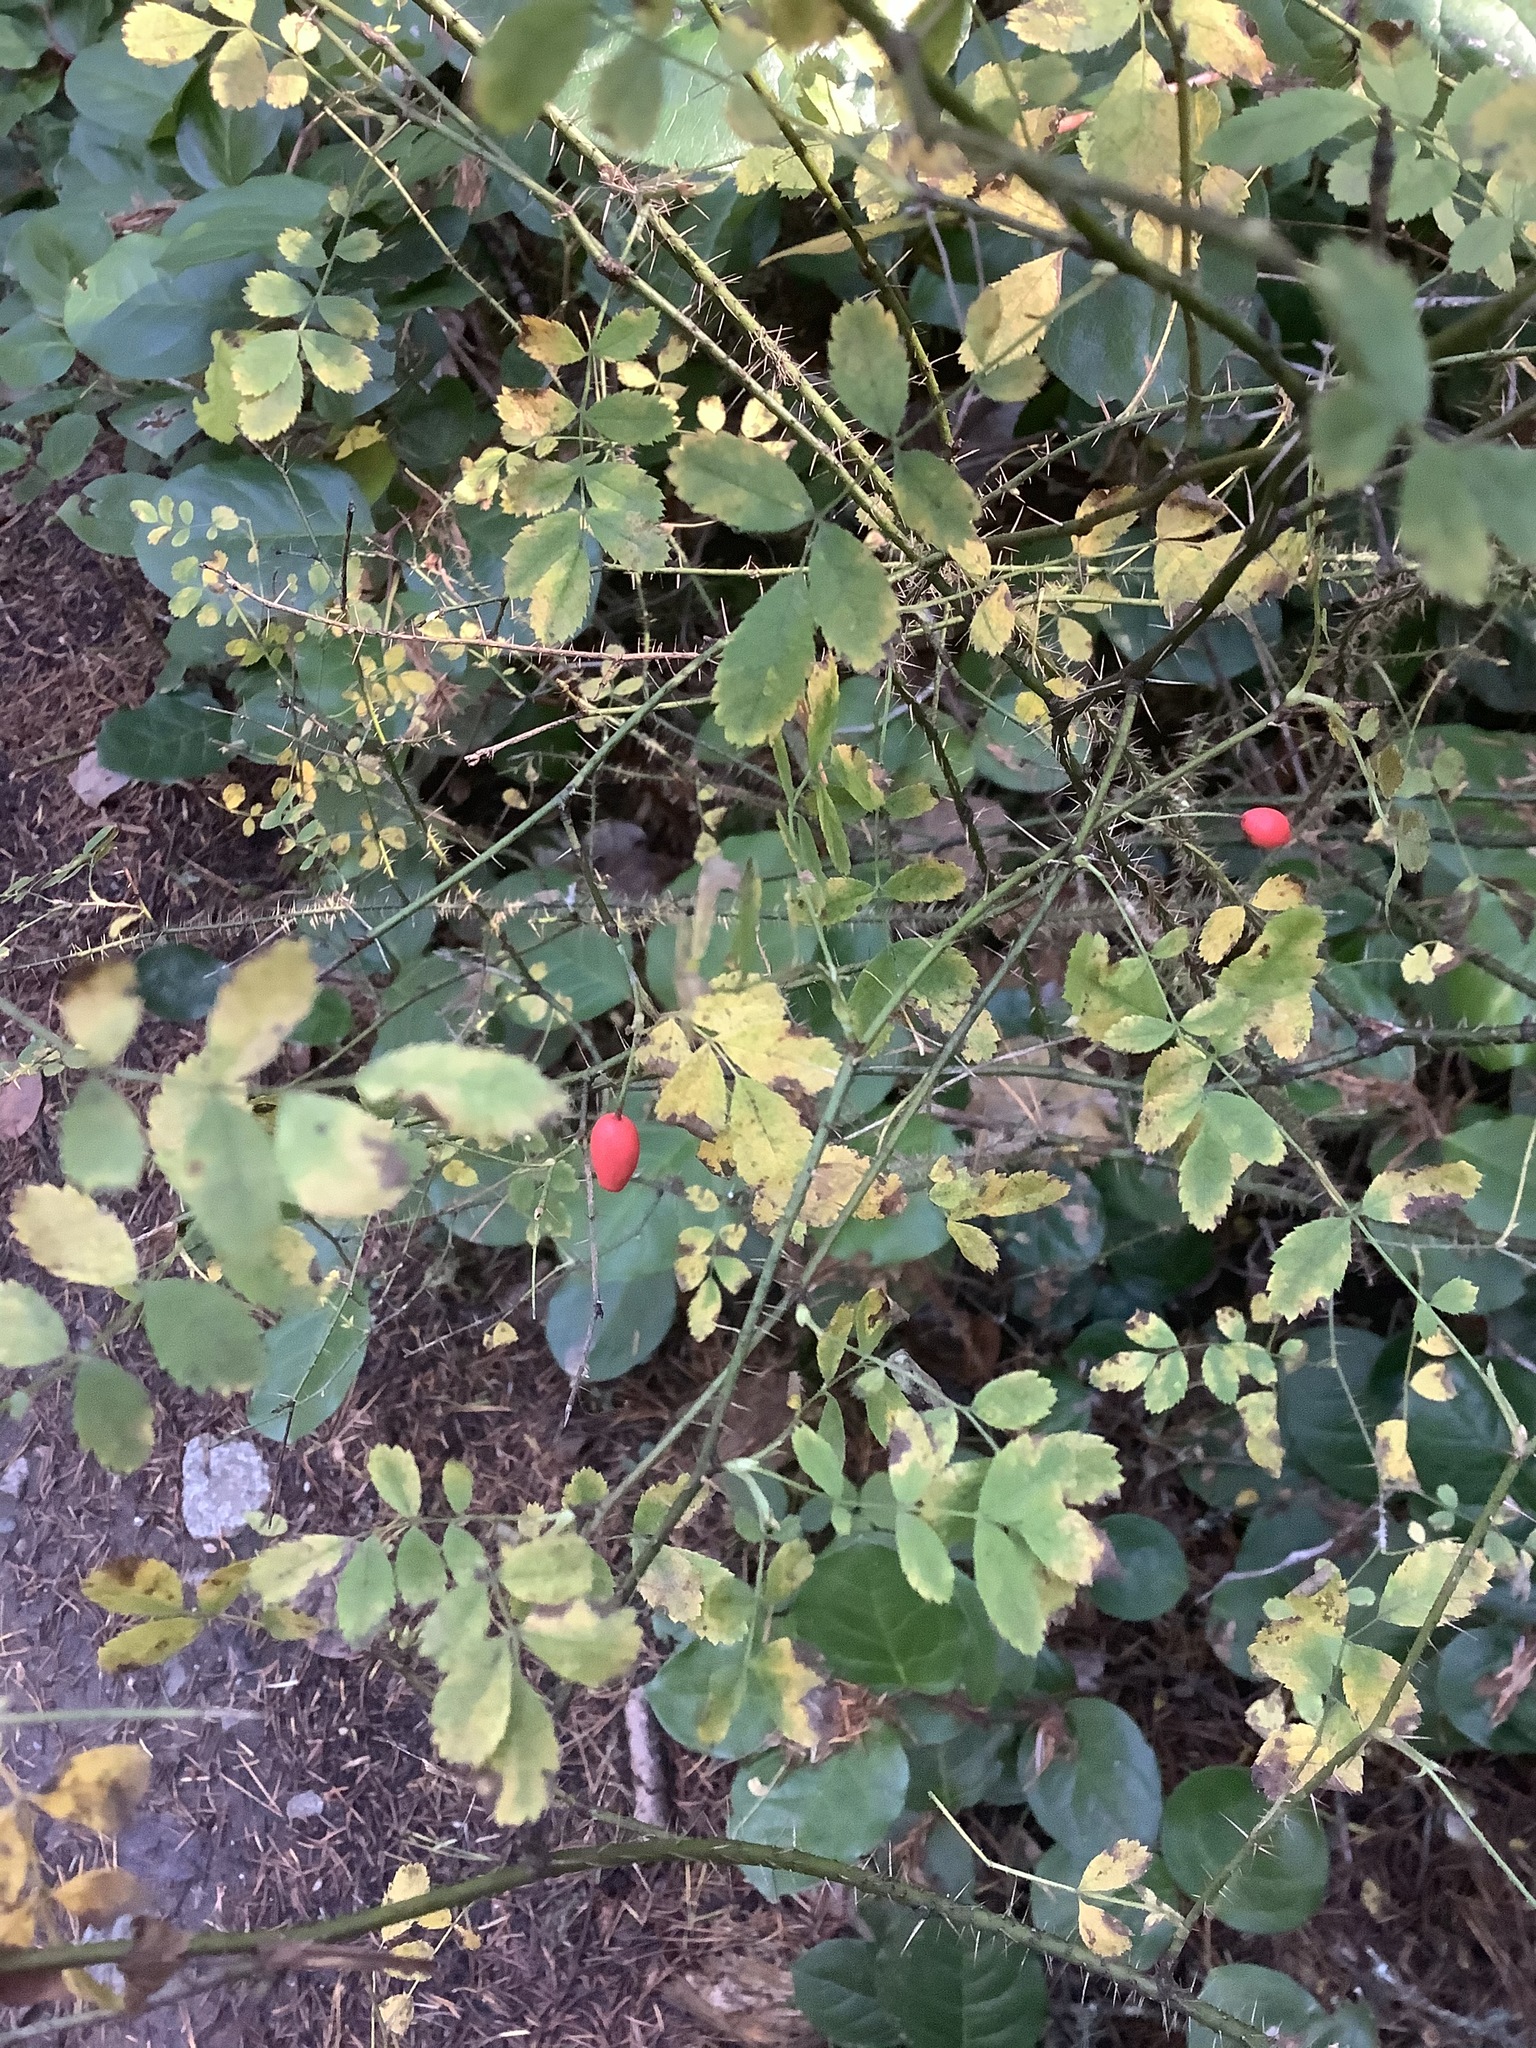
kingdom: Plantae
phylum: Tracheophyta
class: Magnoliopsida
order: Rosales
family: Rosaceae
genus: Rosa
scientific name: Rosa gymnocarpa
